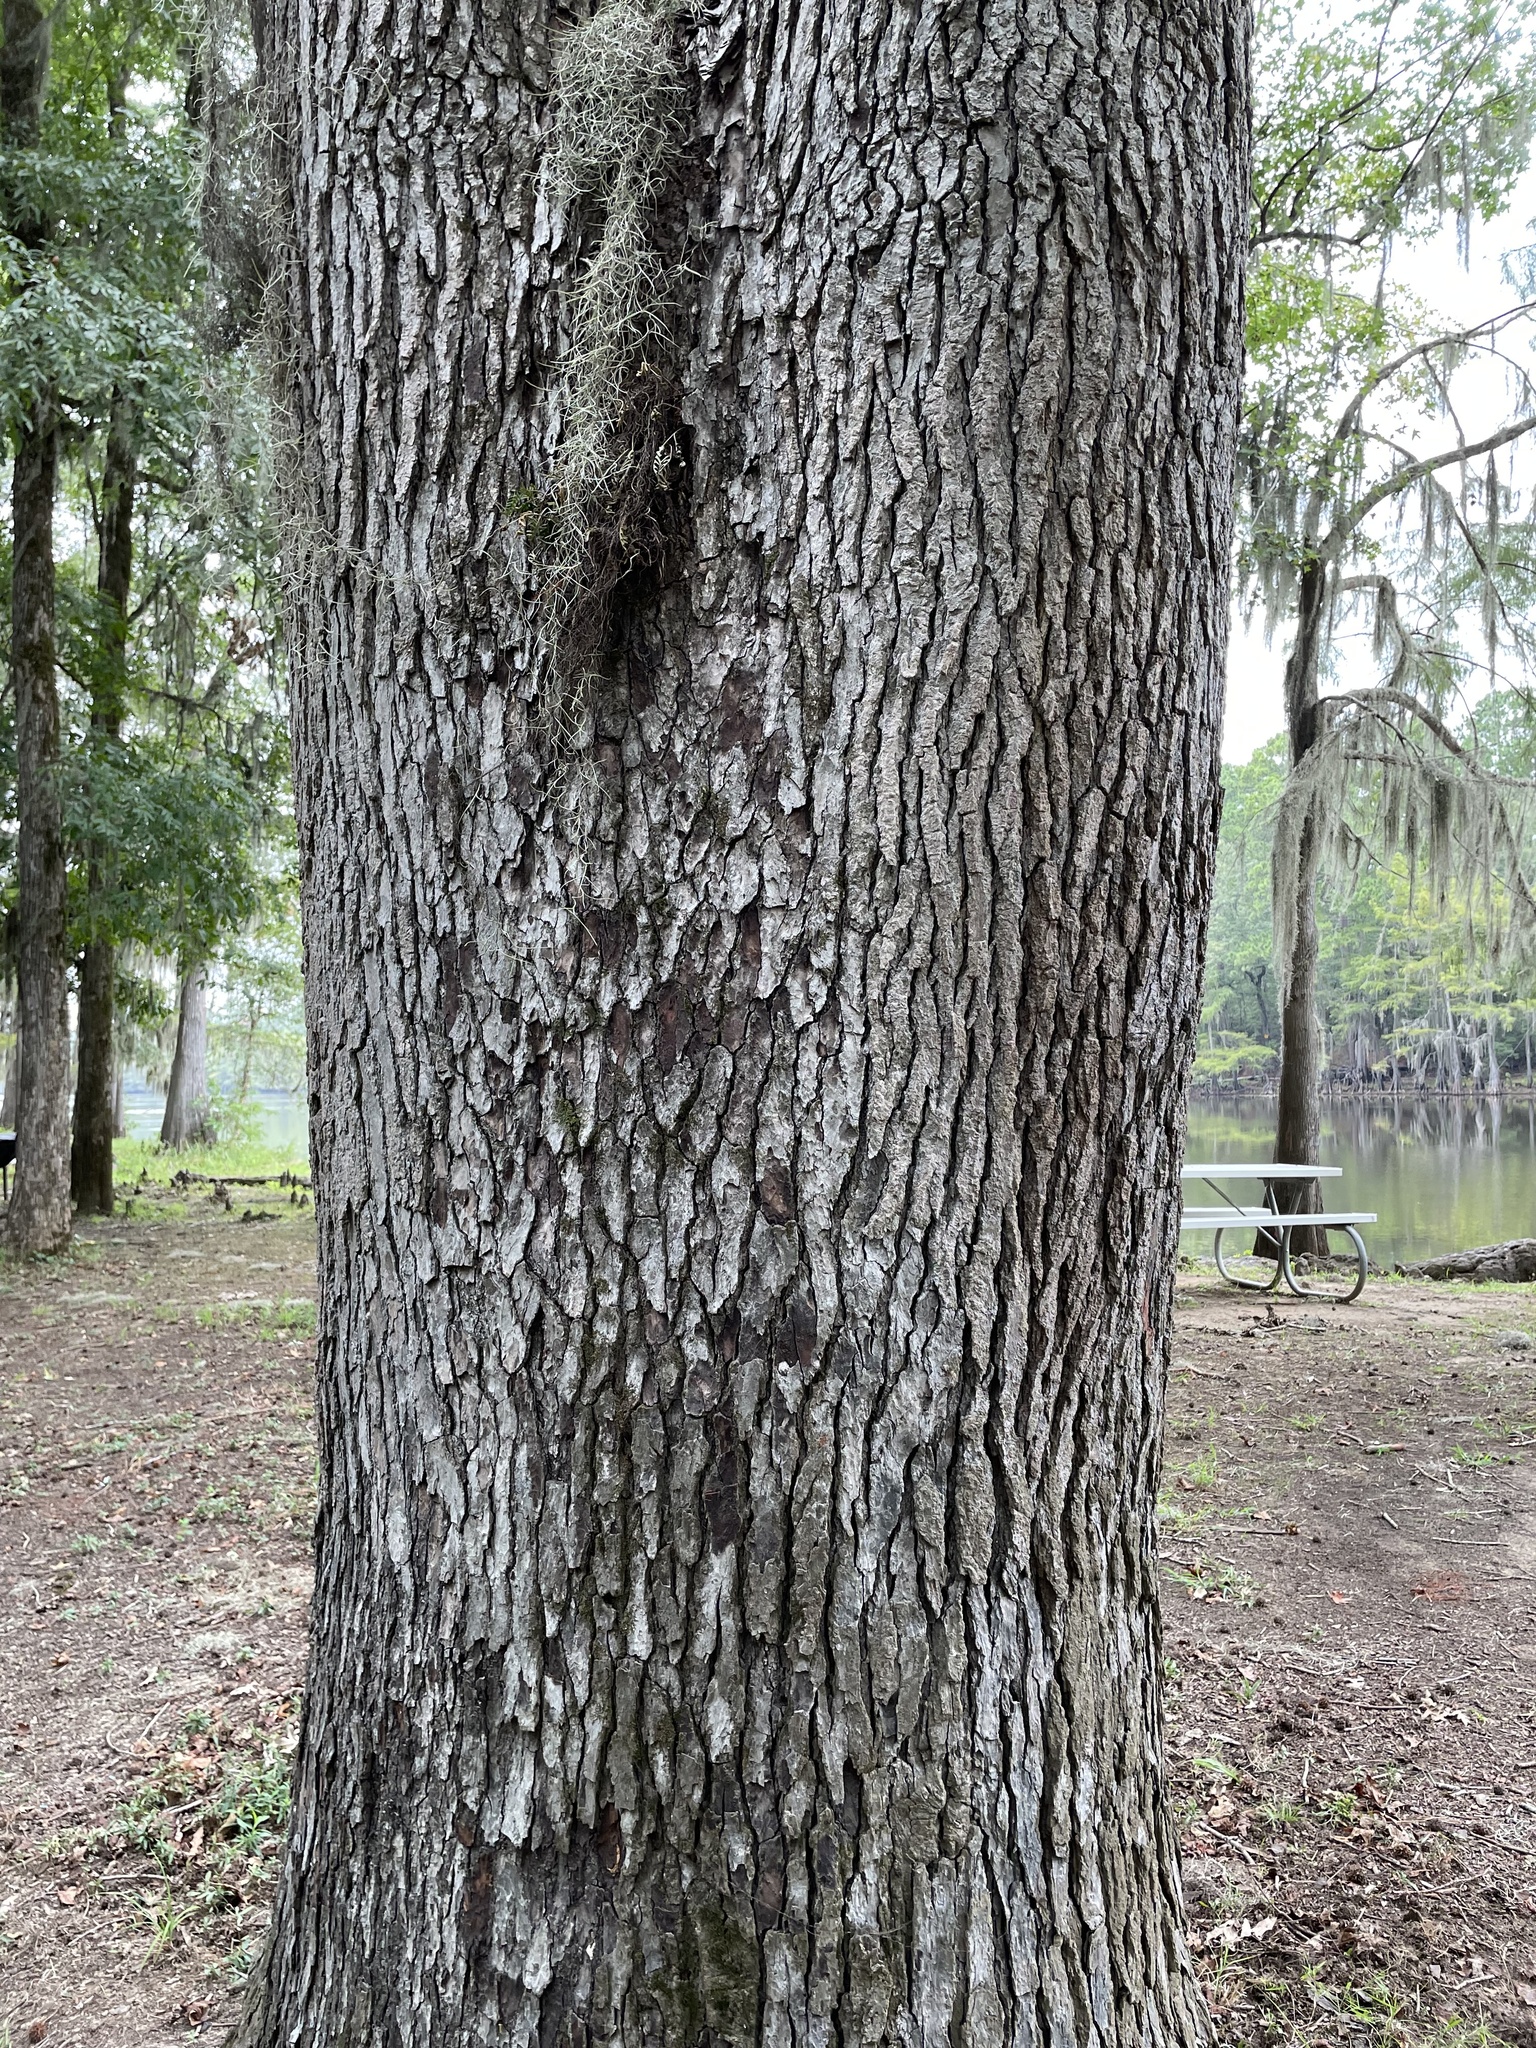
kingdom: Plantae
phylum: Tracheophyta
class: Magnoliopsida
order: Saxifragales
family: Altingiaceae
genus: Liquidambar
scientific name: Liquidambar styraciflua
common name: Sweet gum
